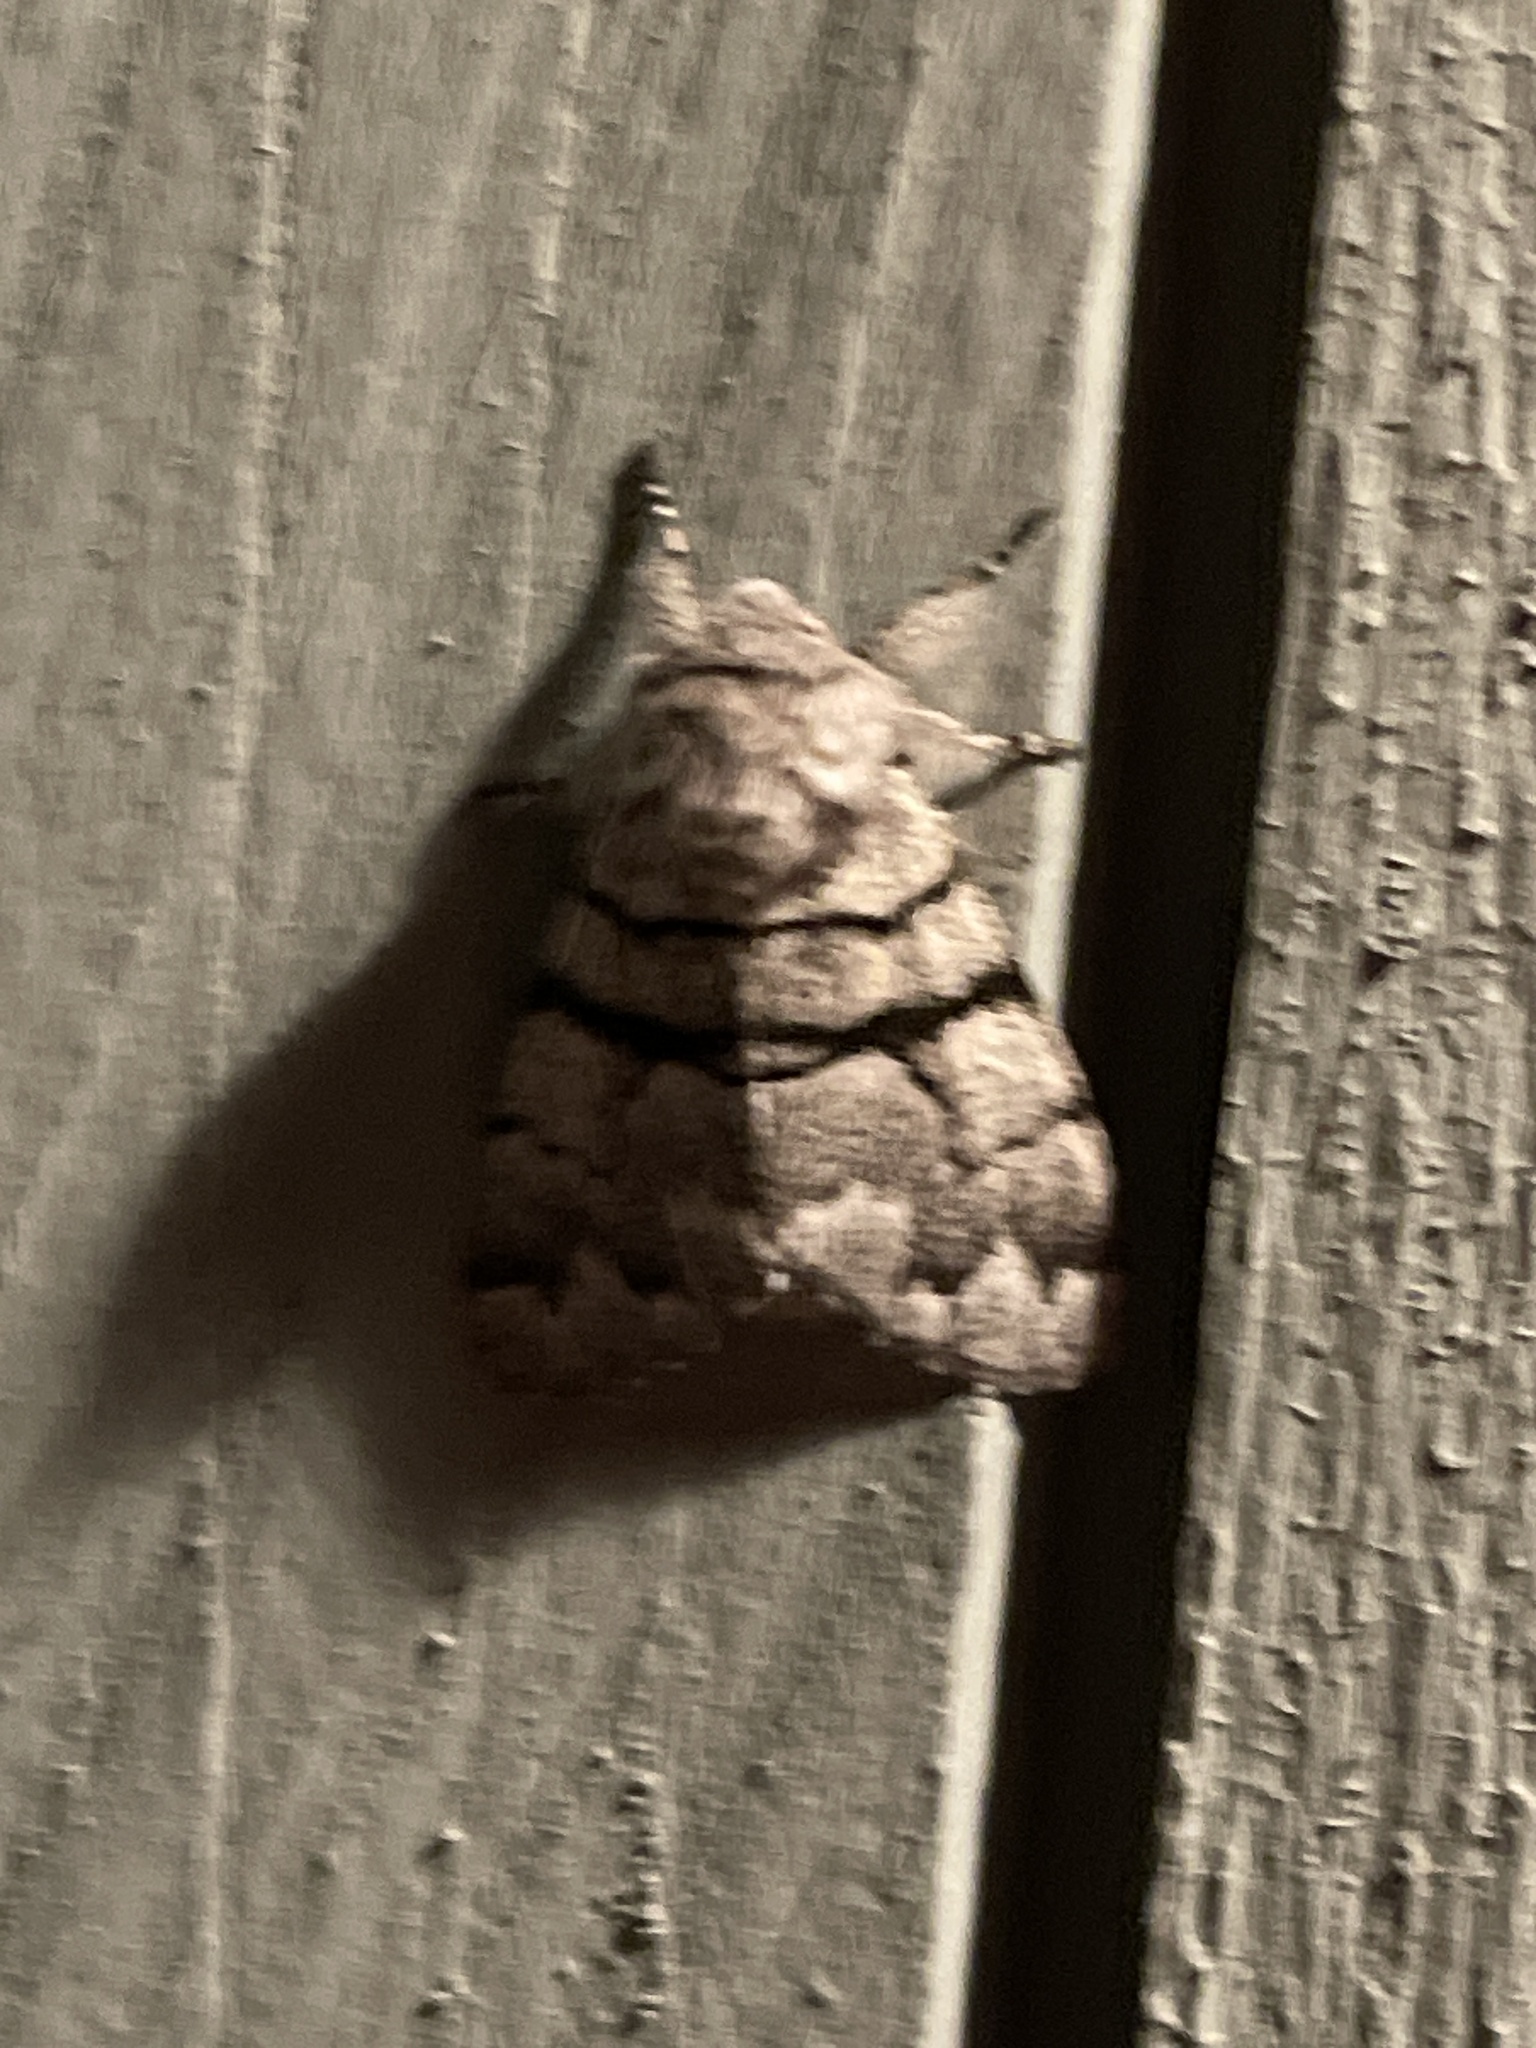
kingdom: Animalia
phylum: Arthropoda
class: Insecta
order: Lepidoptera
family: Noctuidae
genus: Panthea
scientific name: Panthea furcilla
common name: Eastern panthea moth
